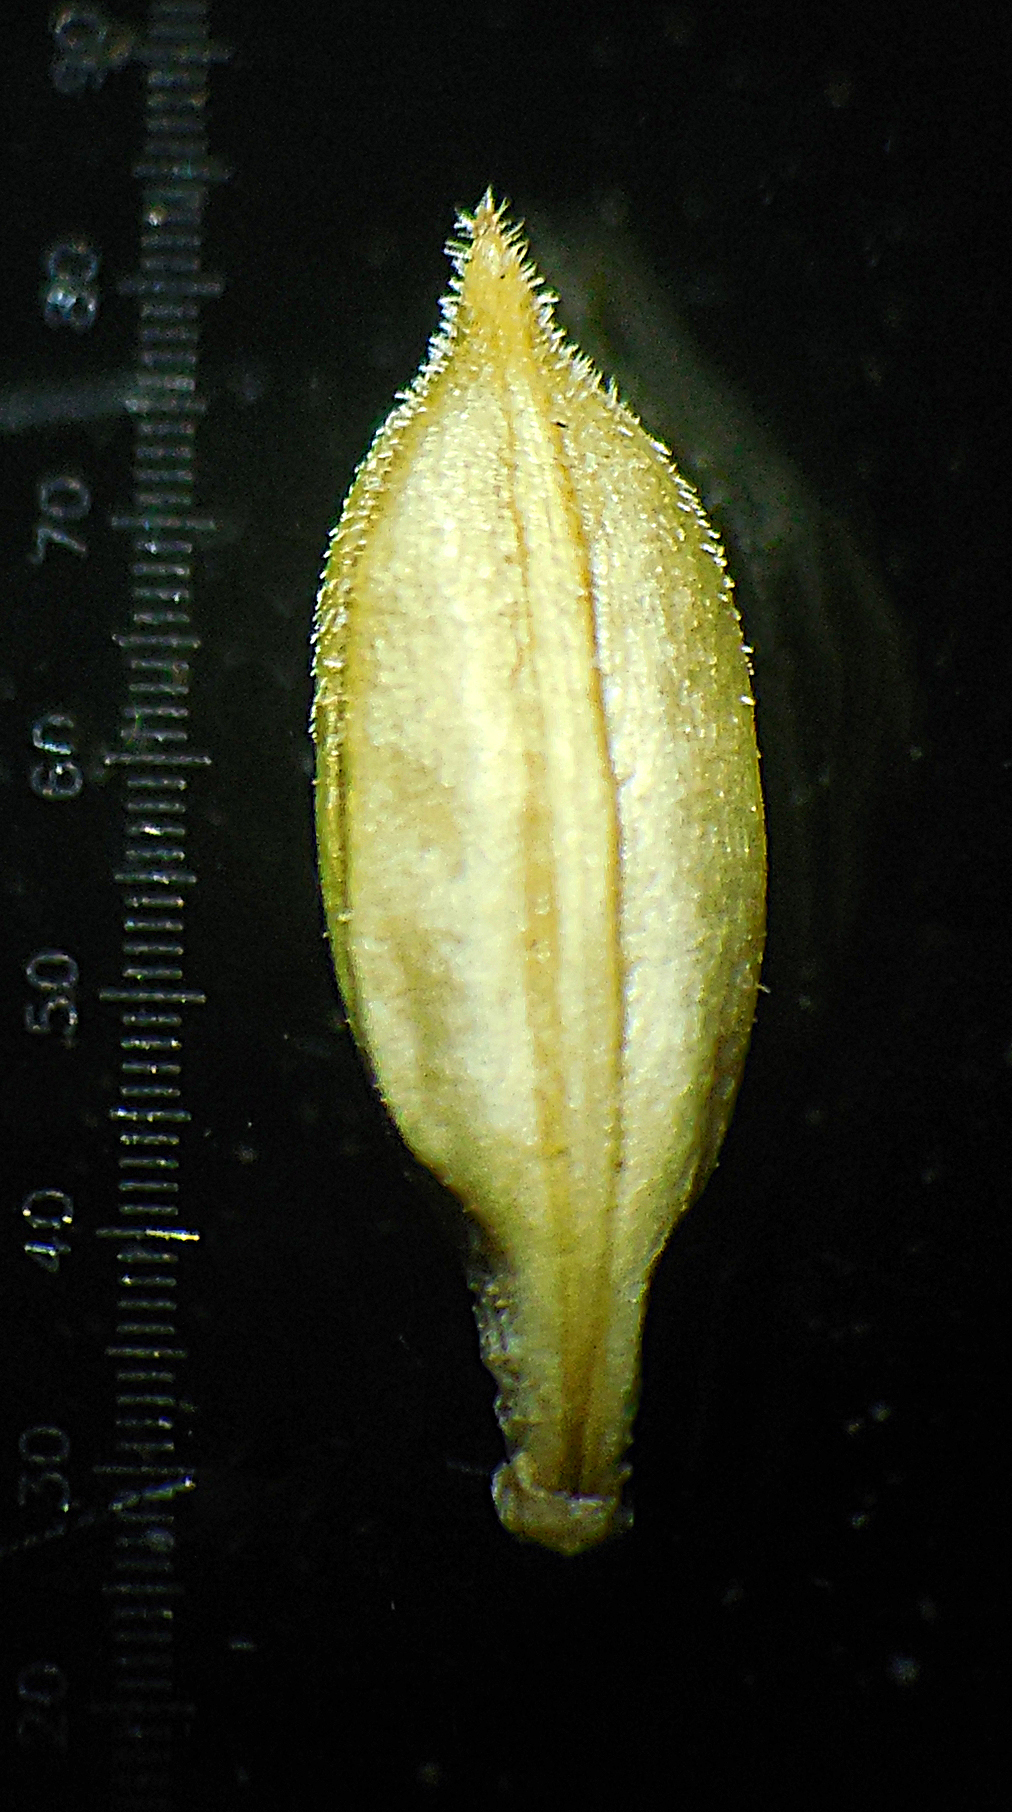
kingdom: Plantae
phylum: Tracheophyta
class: Magnoliopsida
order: Lamiales
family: Acanthaceae
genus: Rostellularia
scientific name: Rostellularia quinquangularis
